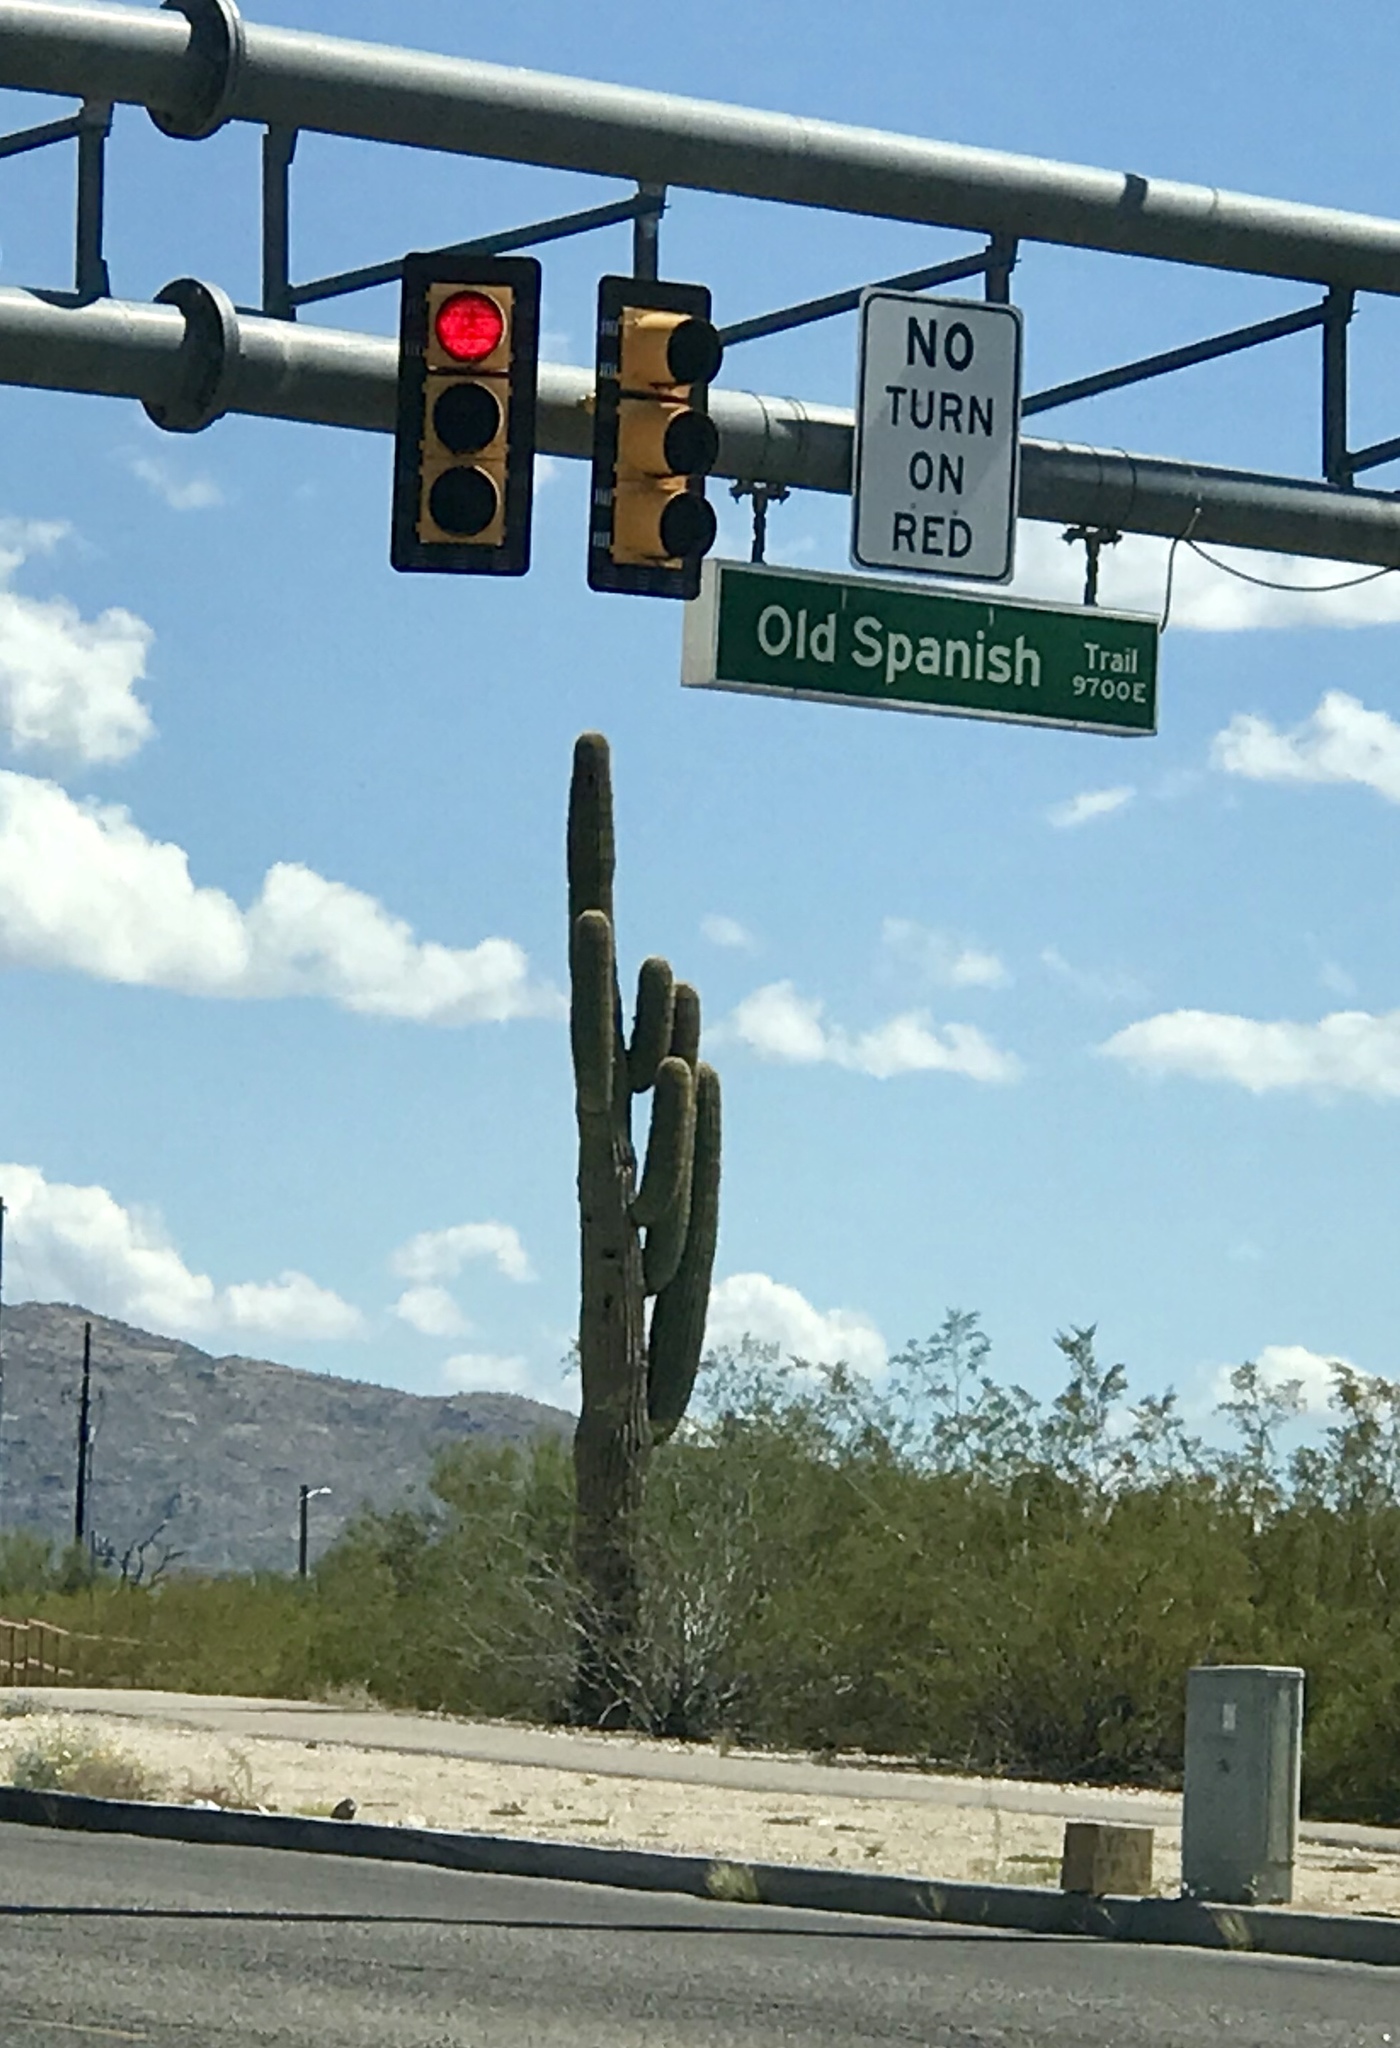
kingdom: Plantae
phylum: Tracheophyta
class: Magnoliopsida
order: Caryophyllales
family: Cactaceae
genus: Carnegiea
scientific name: Carnegiea gigantea
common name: Saguaro
